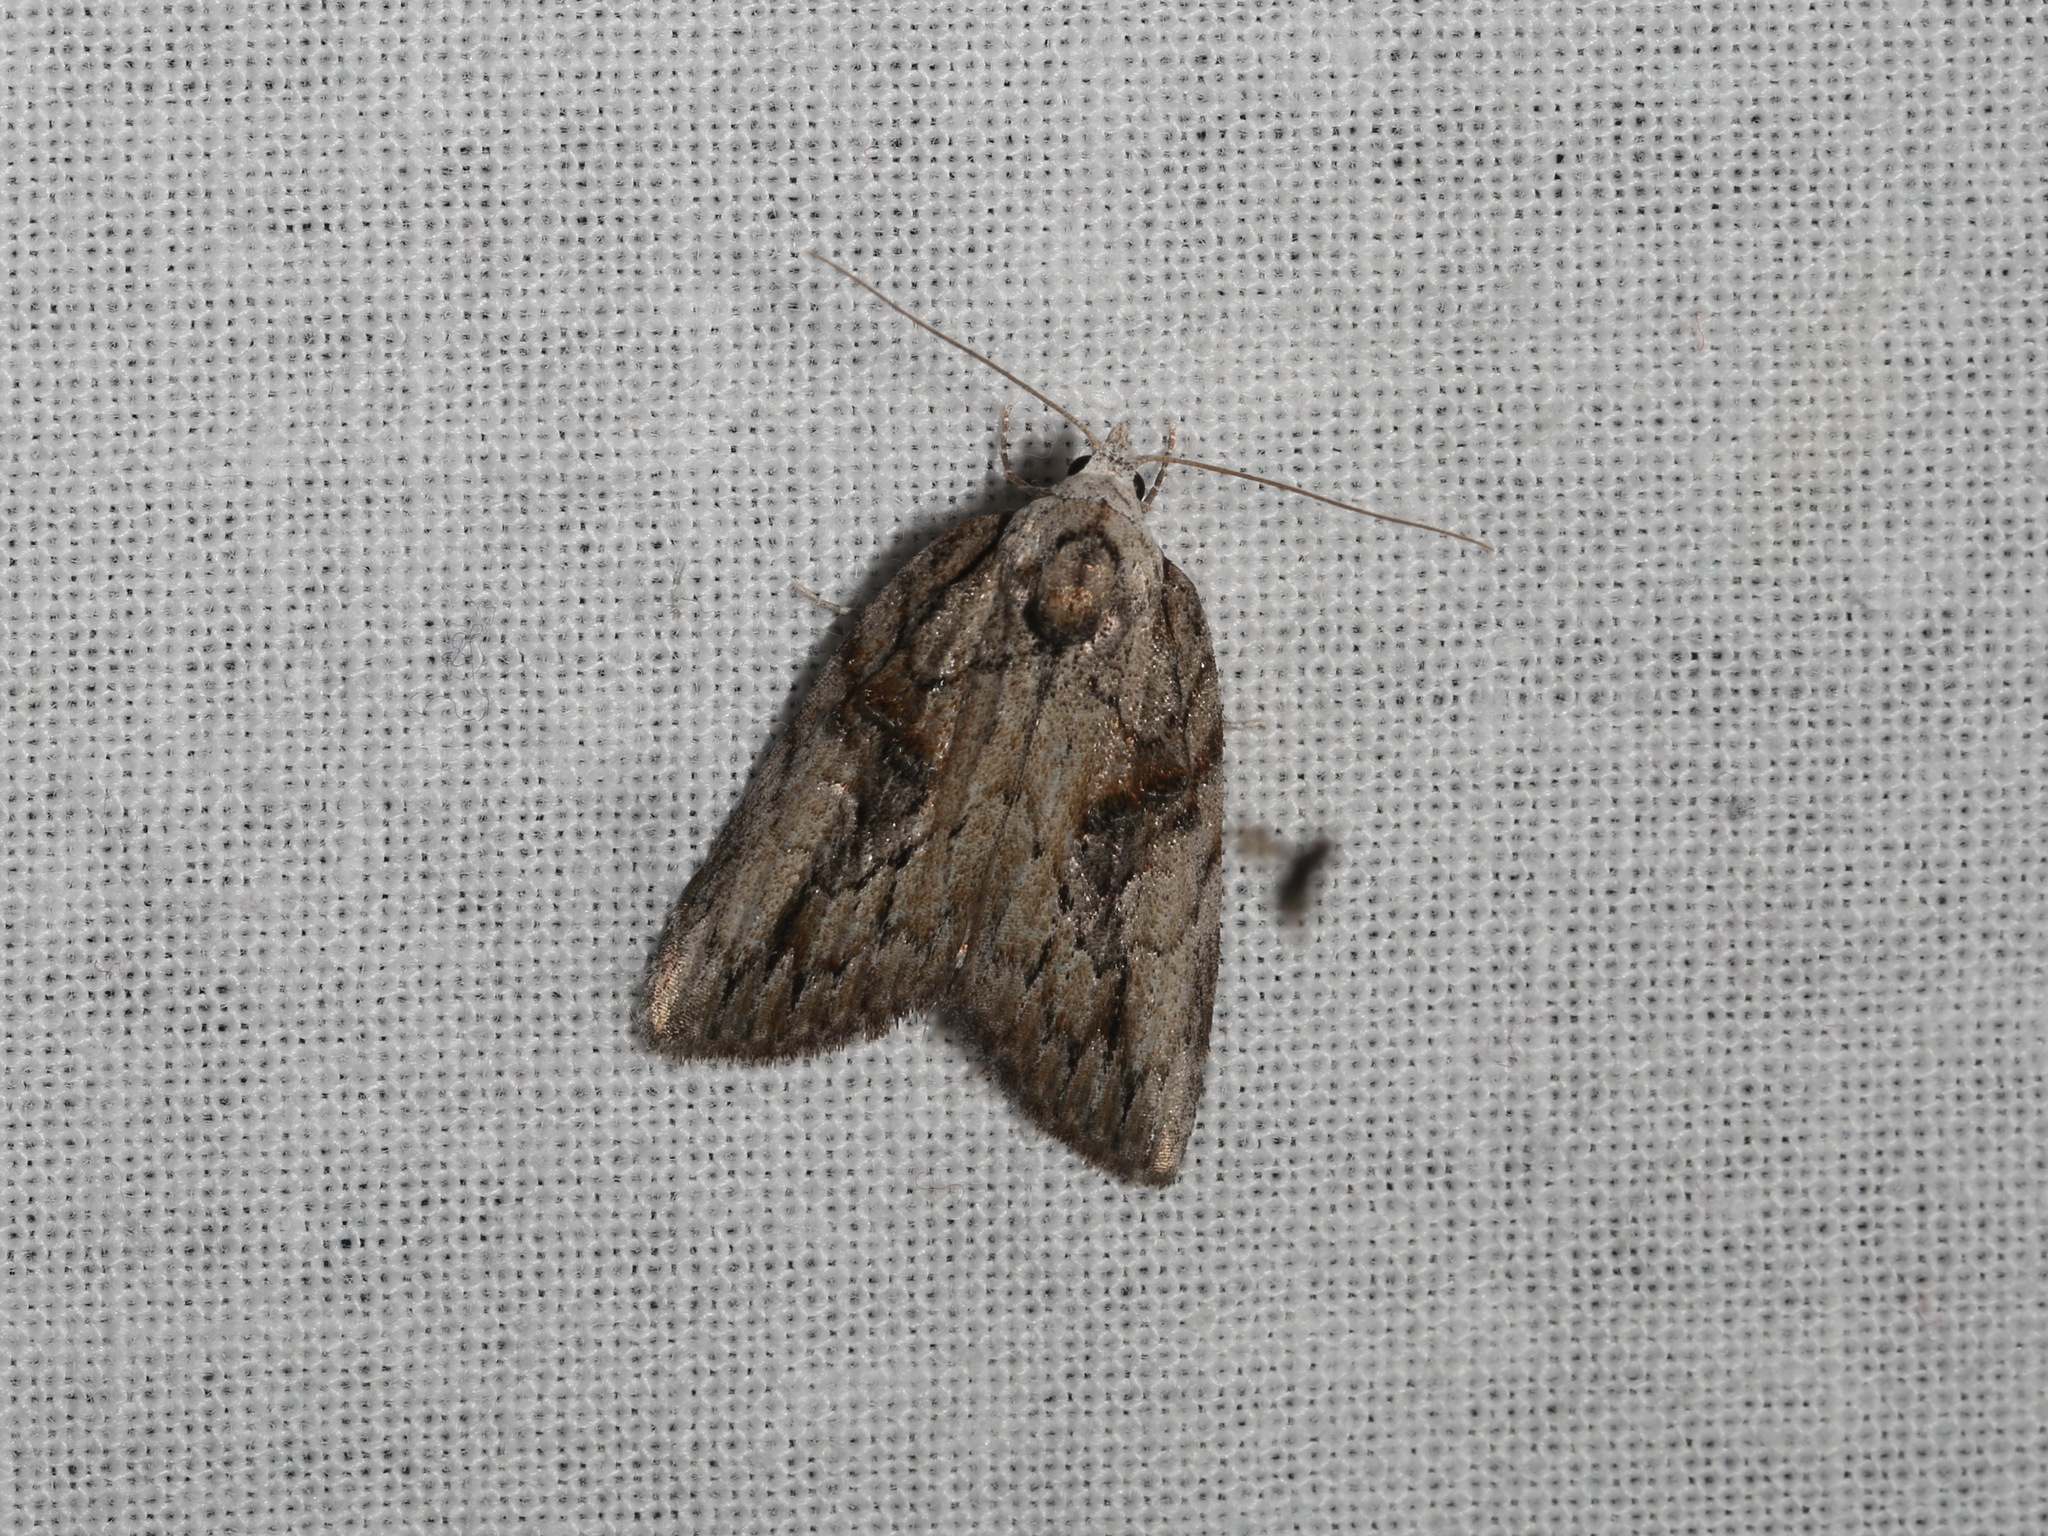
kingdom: Animalia
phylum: Arthropoda
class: Insecta
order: Lepidoptera
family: Nolidae
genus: Aquita
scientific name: Aquita plagiochyta
